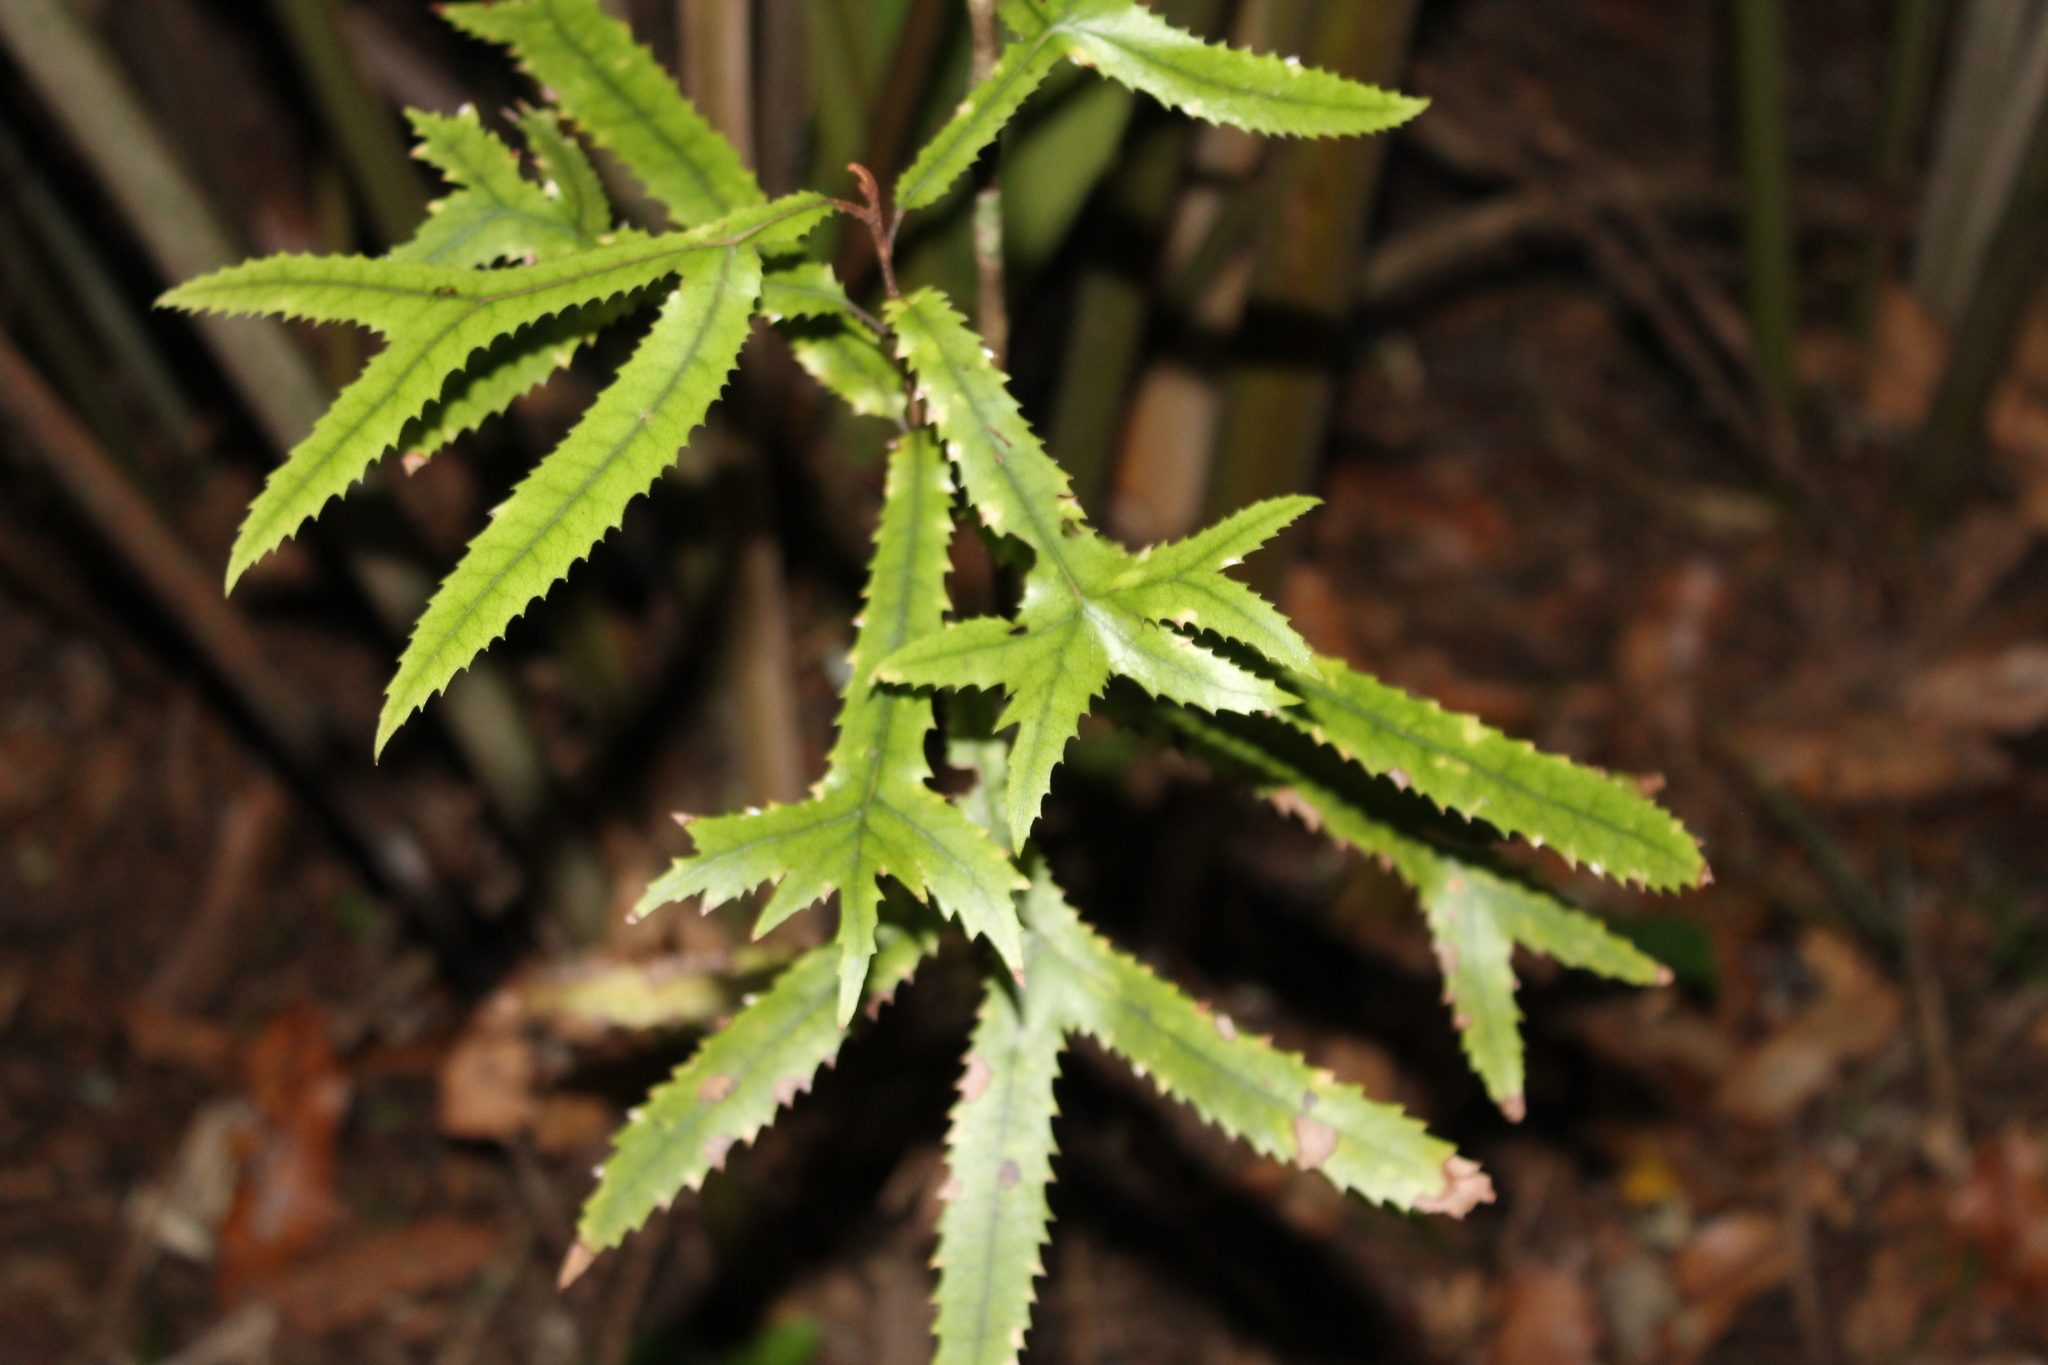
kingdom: Plantae
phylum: Tracheophyta
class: Magnoliopsida
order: Proteales
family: Proteaceae
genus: Knightia
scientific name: Knightia excelsa
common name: New zealand-honeysuckle
